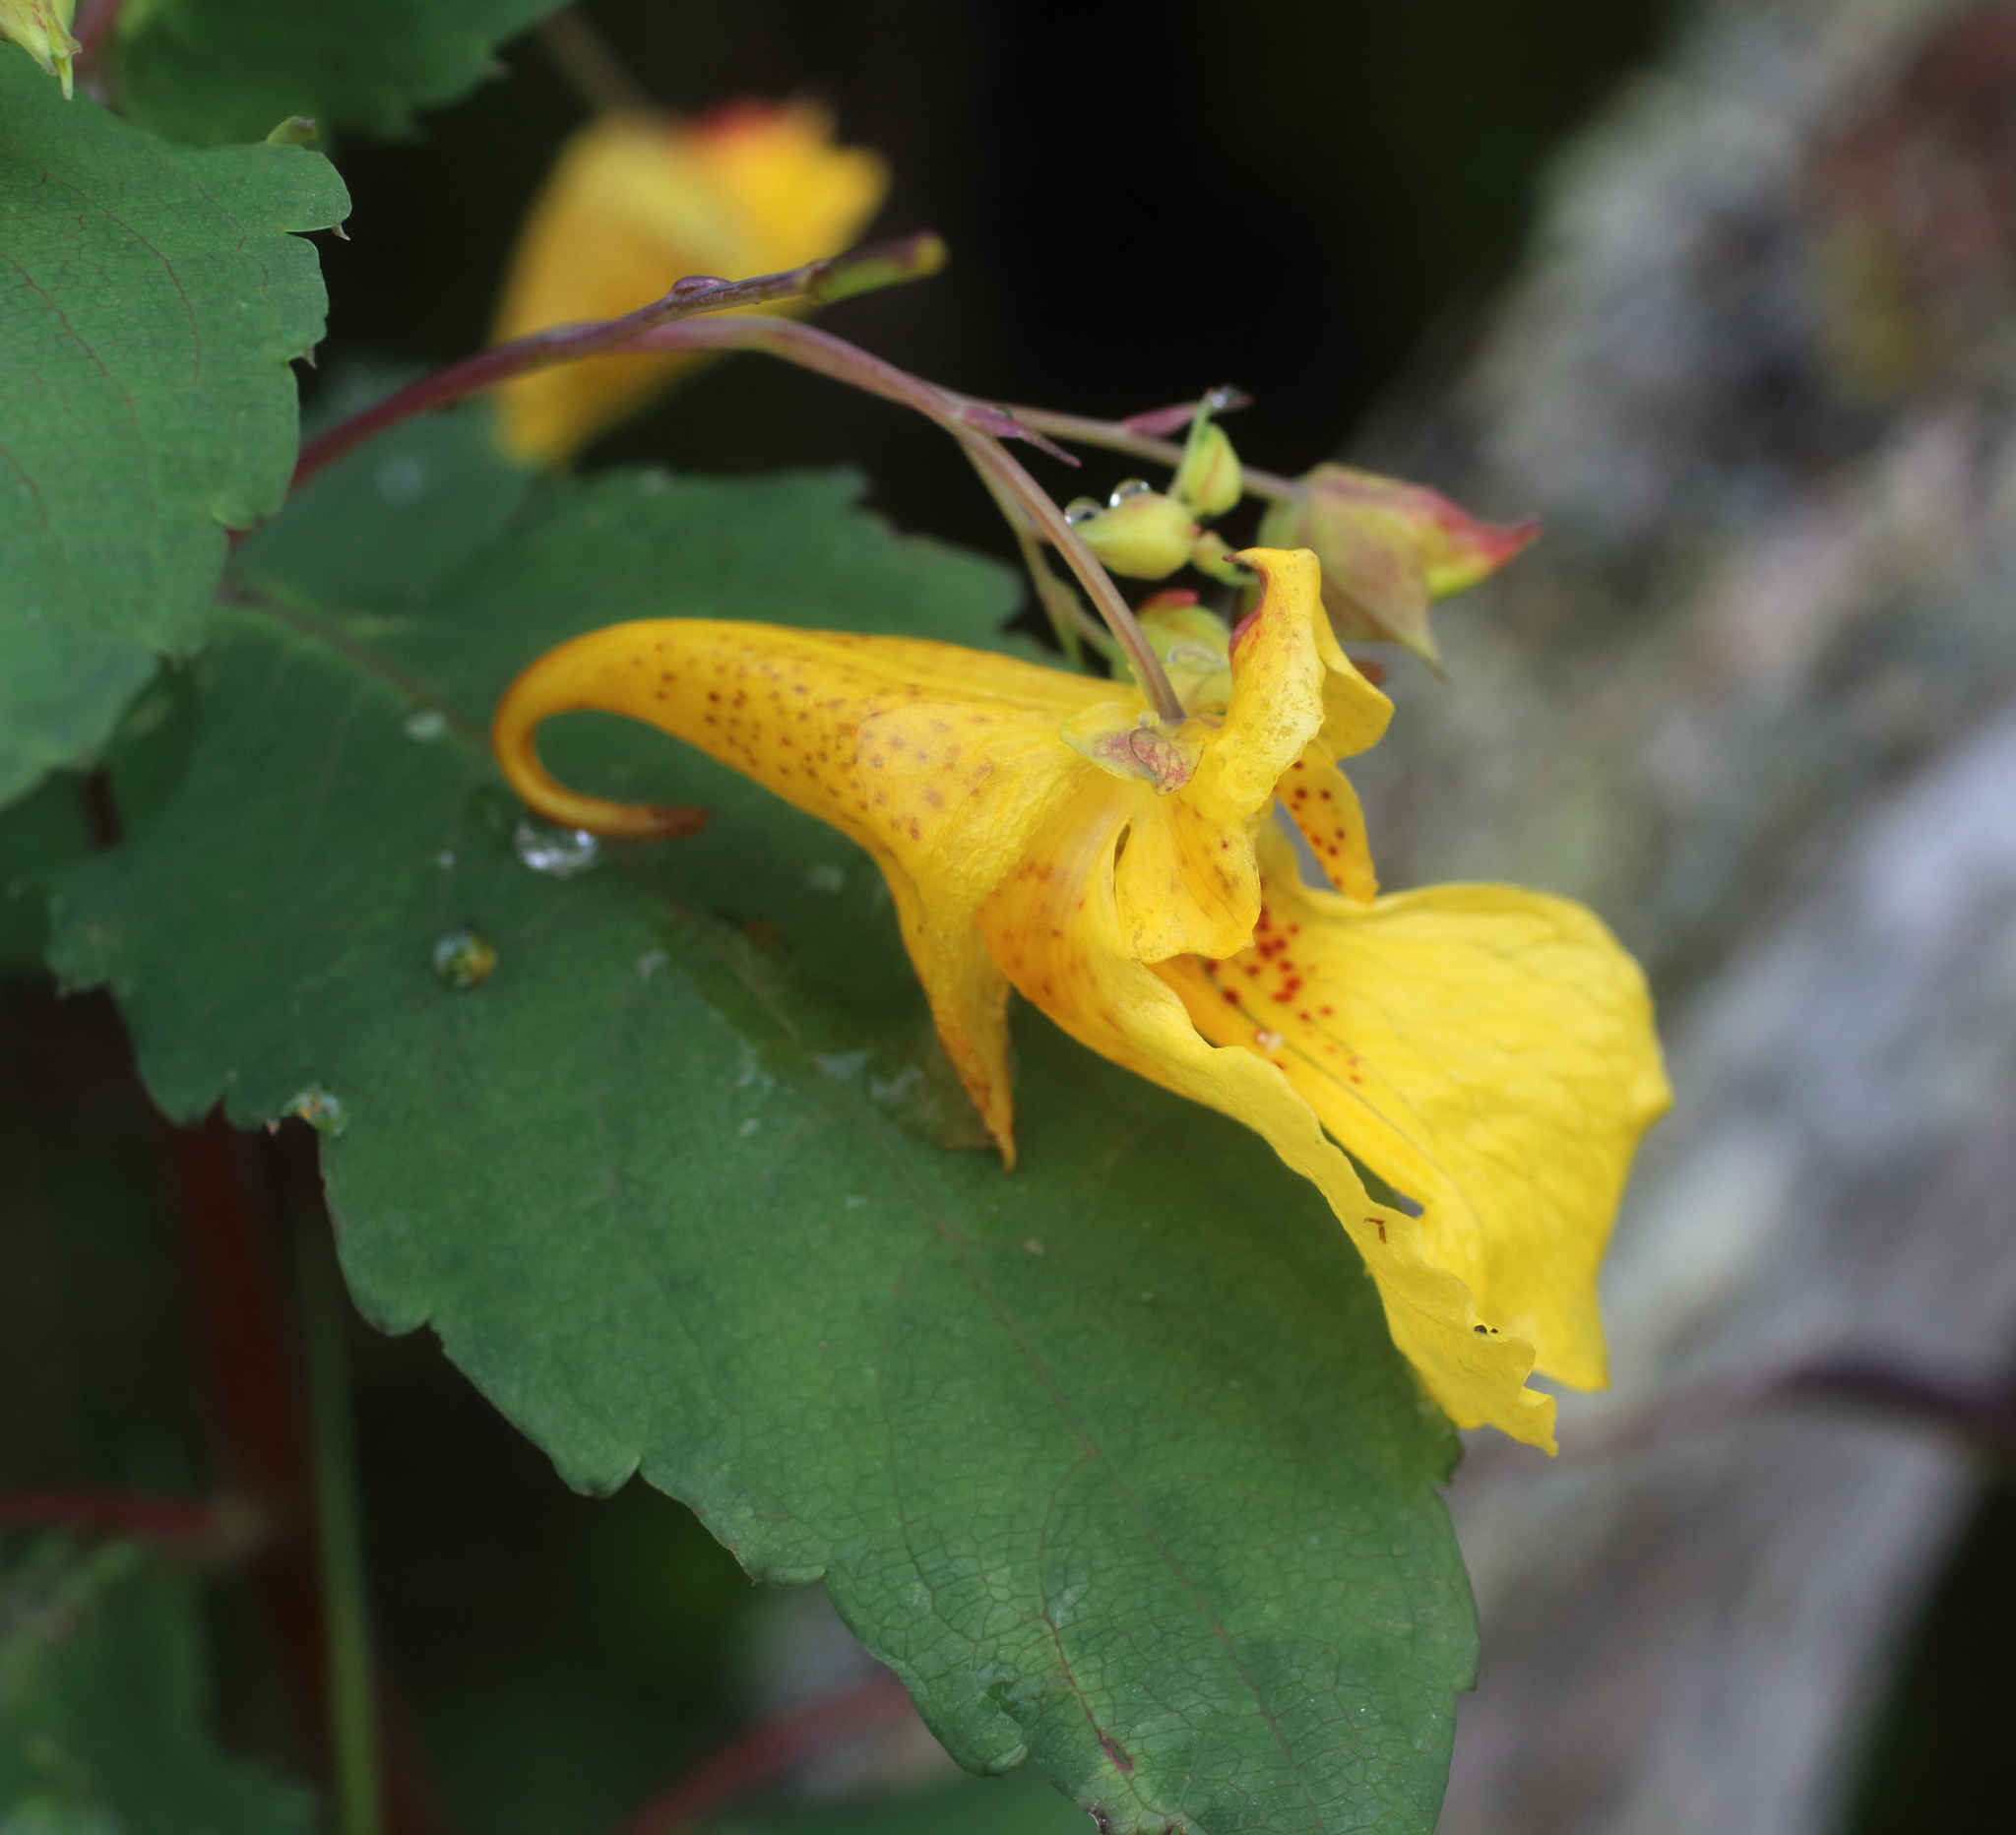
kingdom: Plantae
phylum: Tracheophyta
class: Magnoliopsida
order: Ericales
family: Balsaminaceae
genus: Impatiens
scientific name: Impatiens noli-tangere
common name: Touch-me-not balsam
